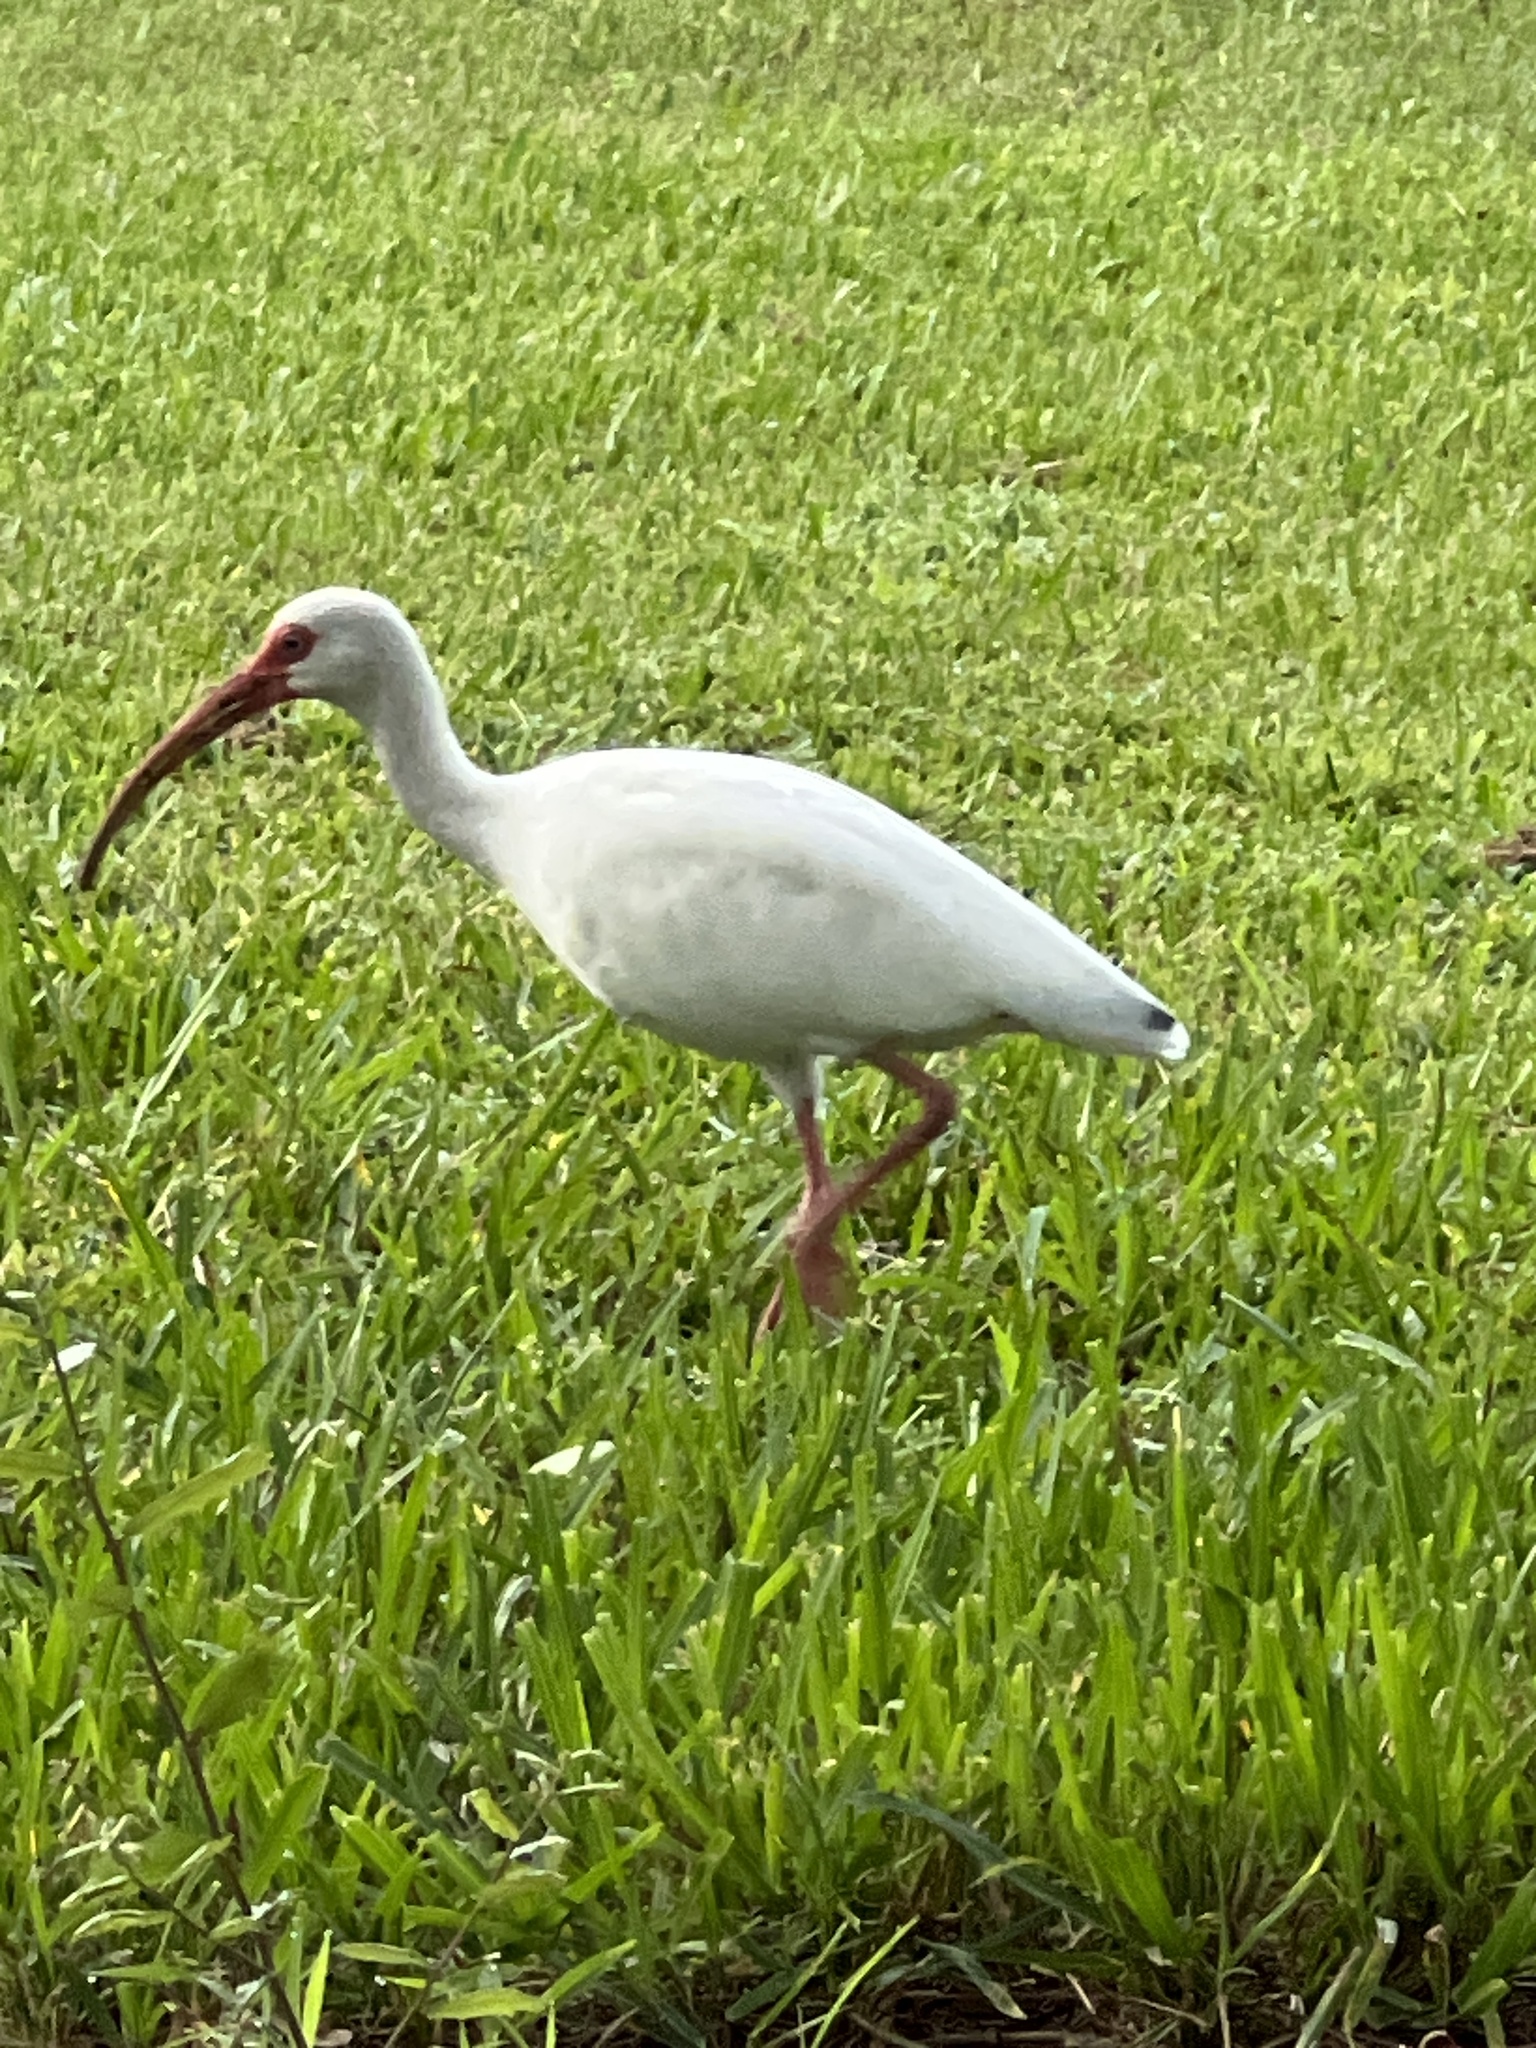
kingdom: Animalia
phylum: Chordata
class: Aves
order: Pelecaniformes
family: Threskiornithidae
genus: Eudocimus
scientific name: Eudocimus albus
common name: White ibis
